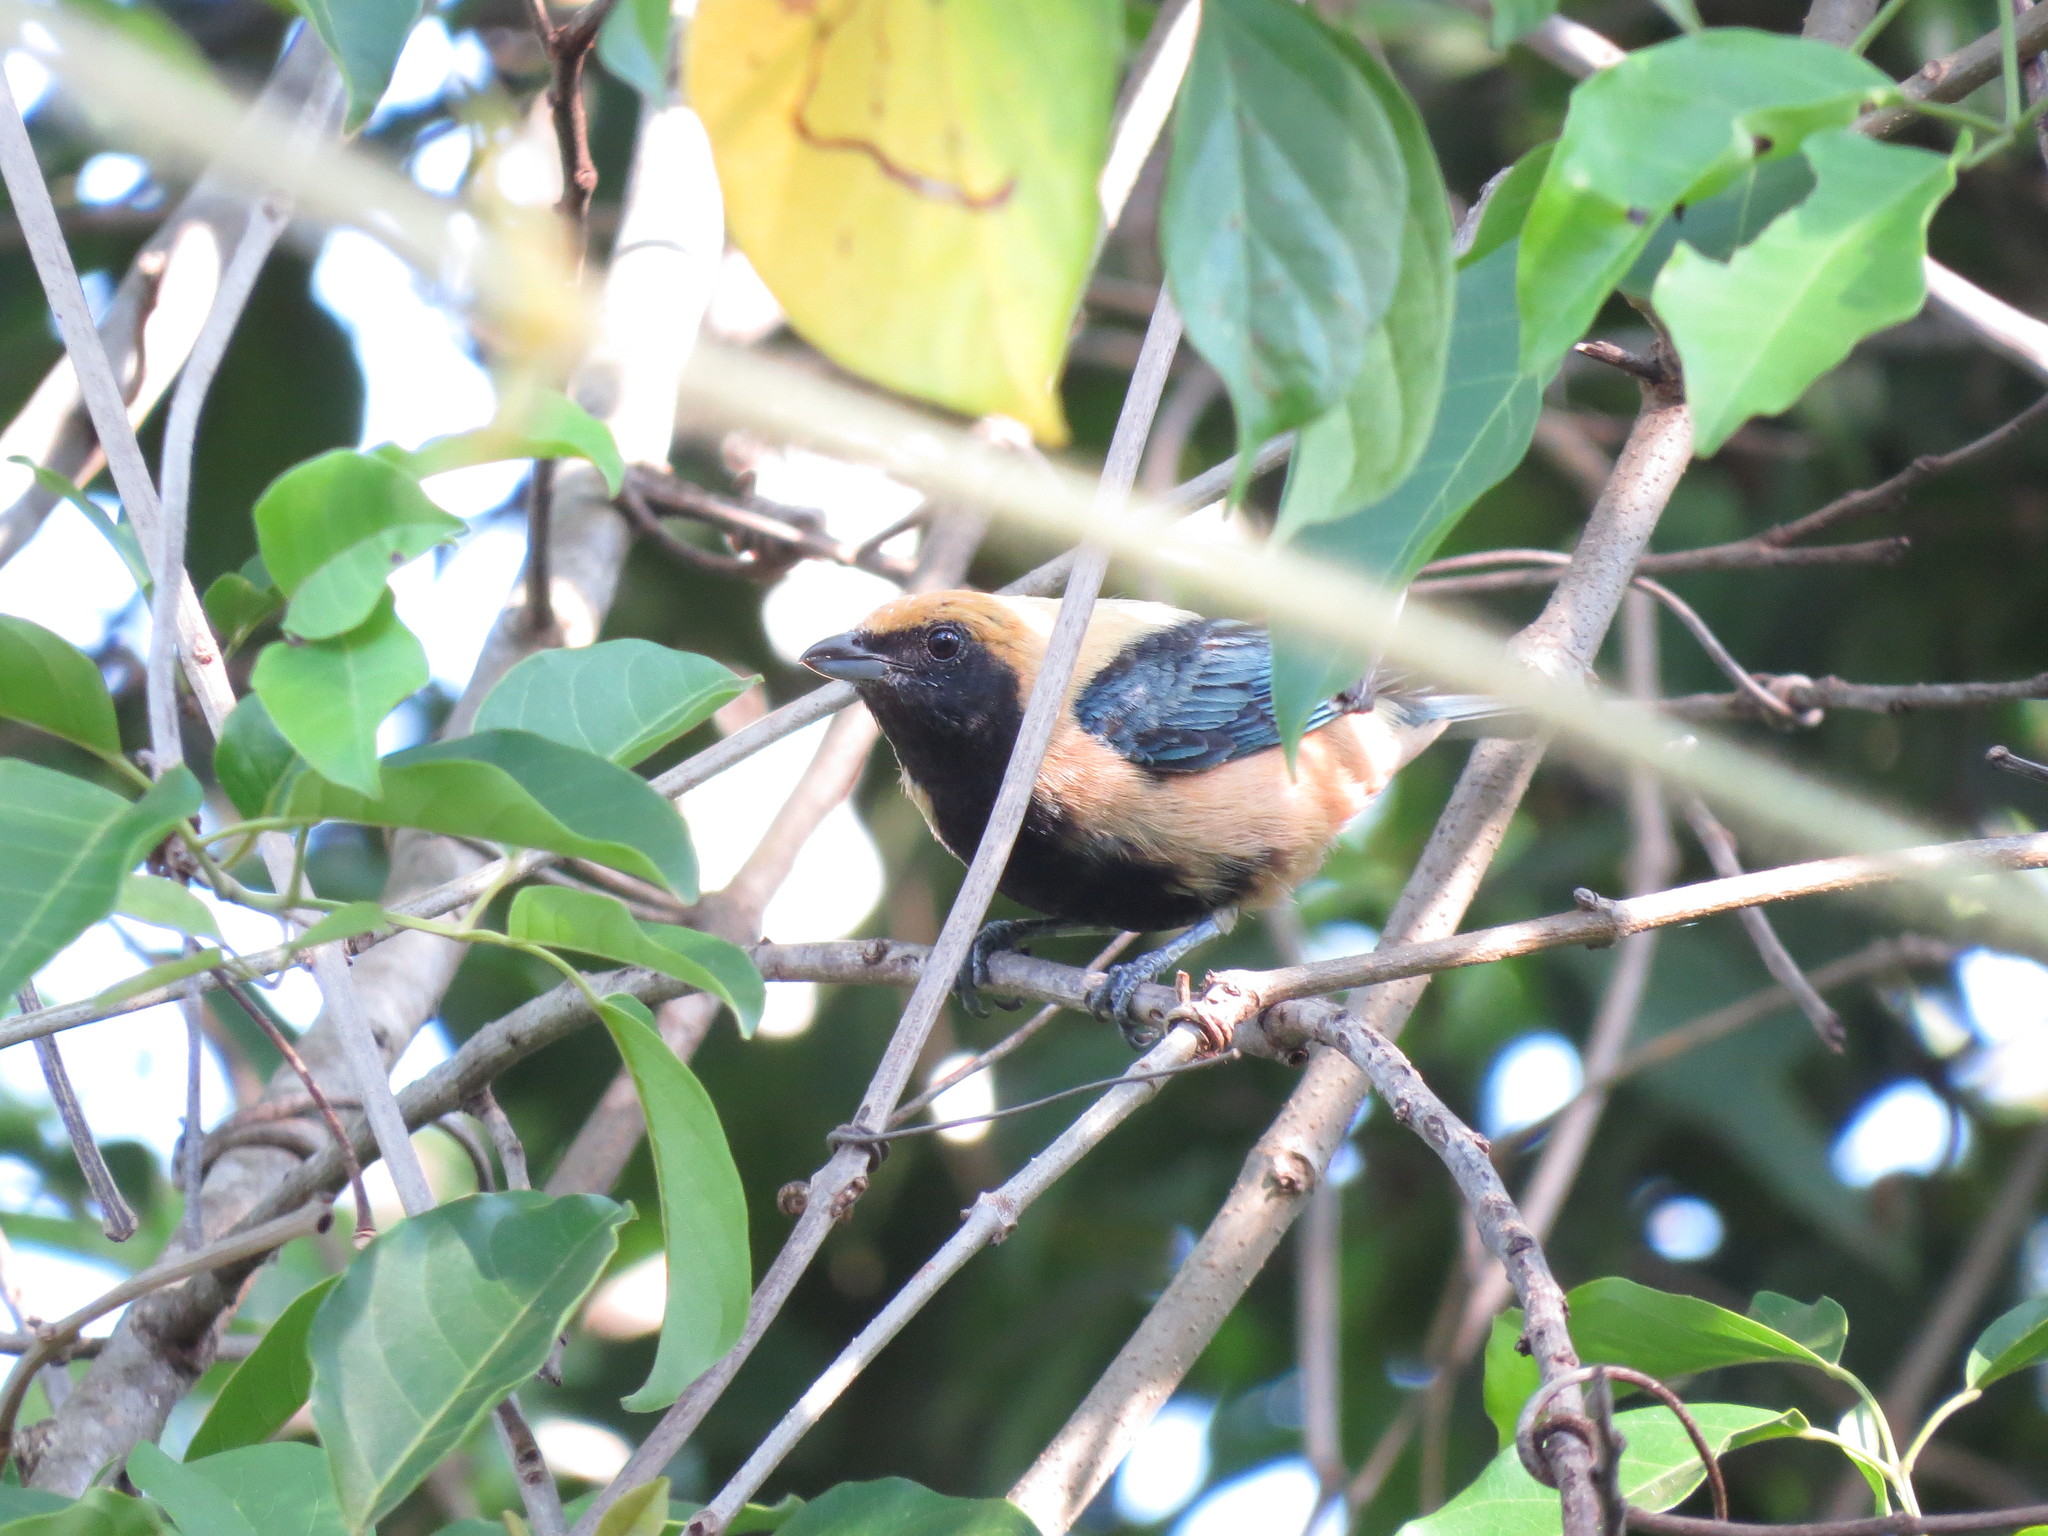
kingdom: Animalia
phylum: Chordata
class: Aves
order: Passeriformes
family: Thraupidae
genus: Stilpnia
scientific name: Stilpnia cayana
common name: Burnished-buff tanager
